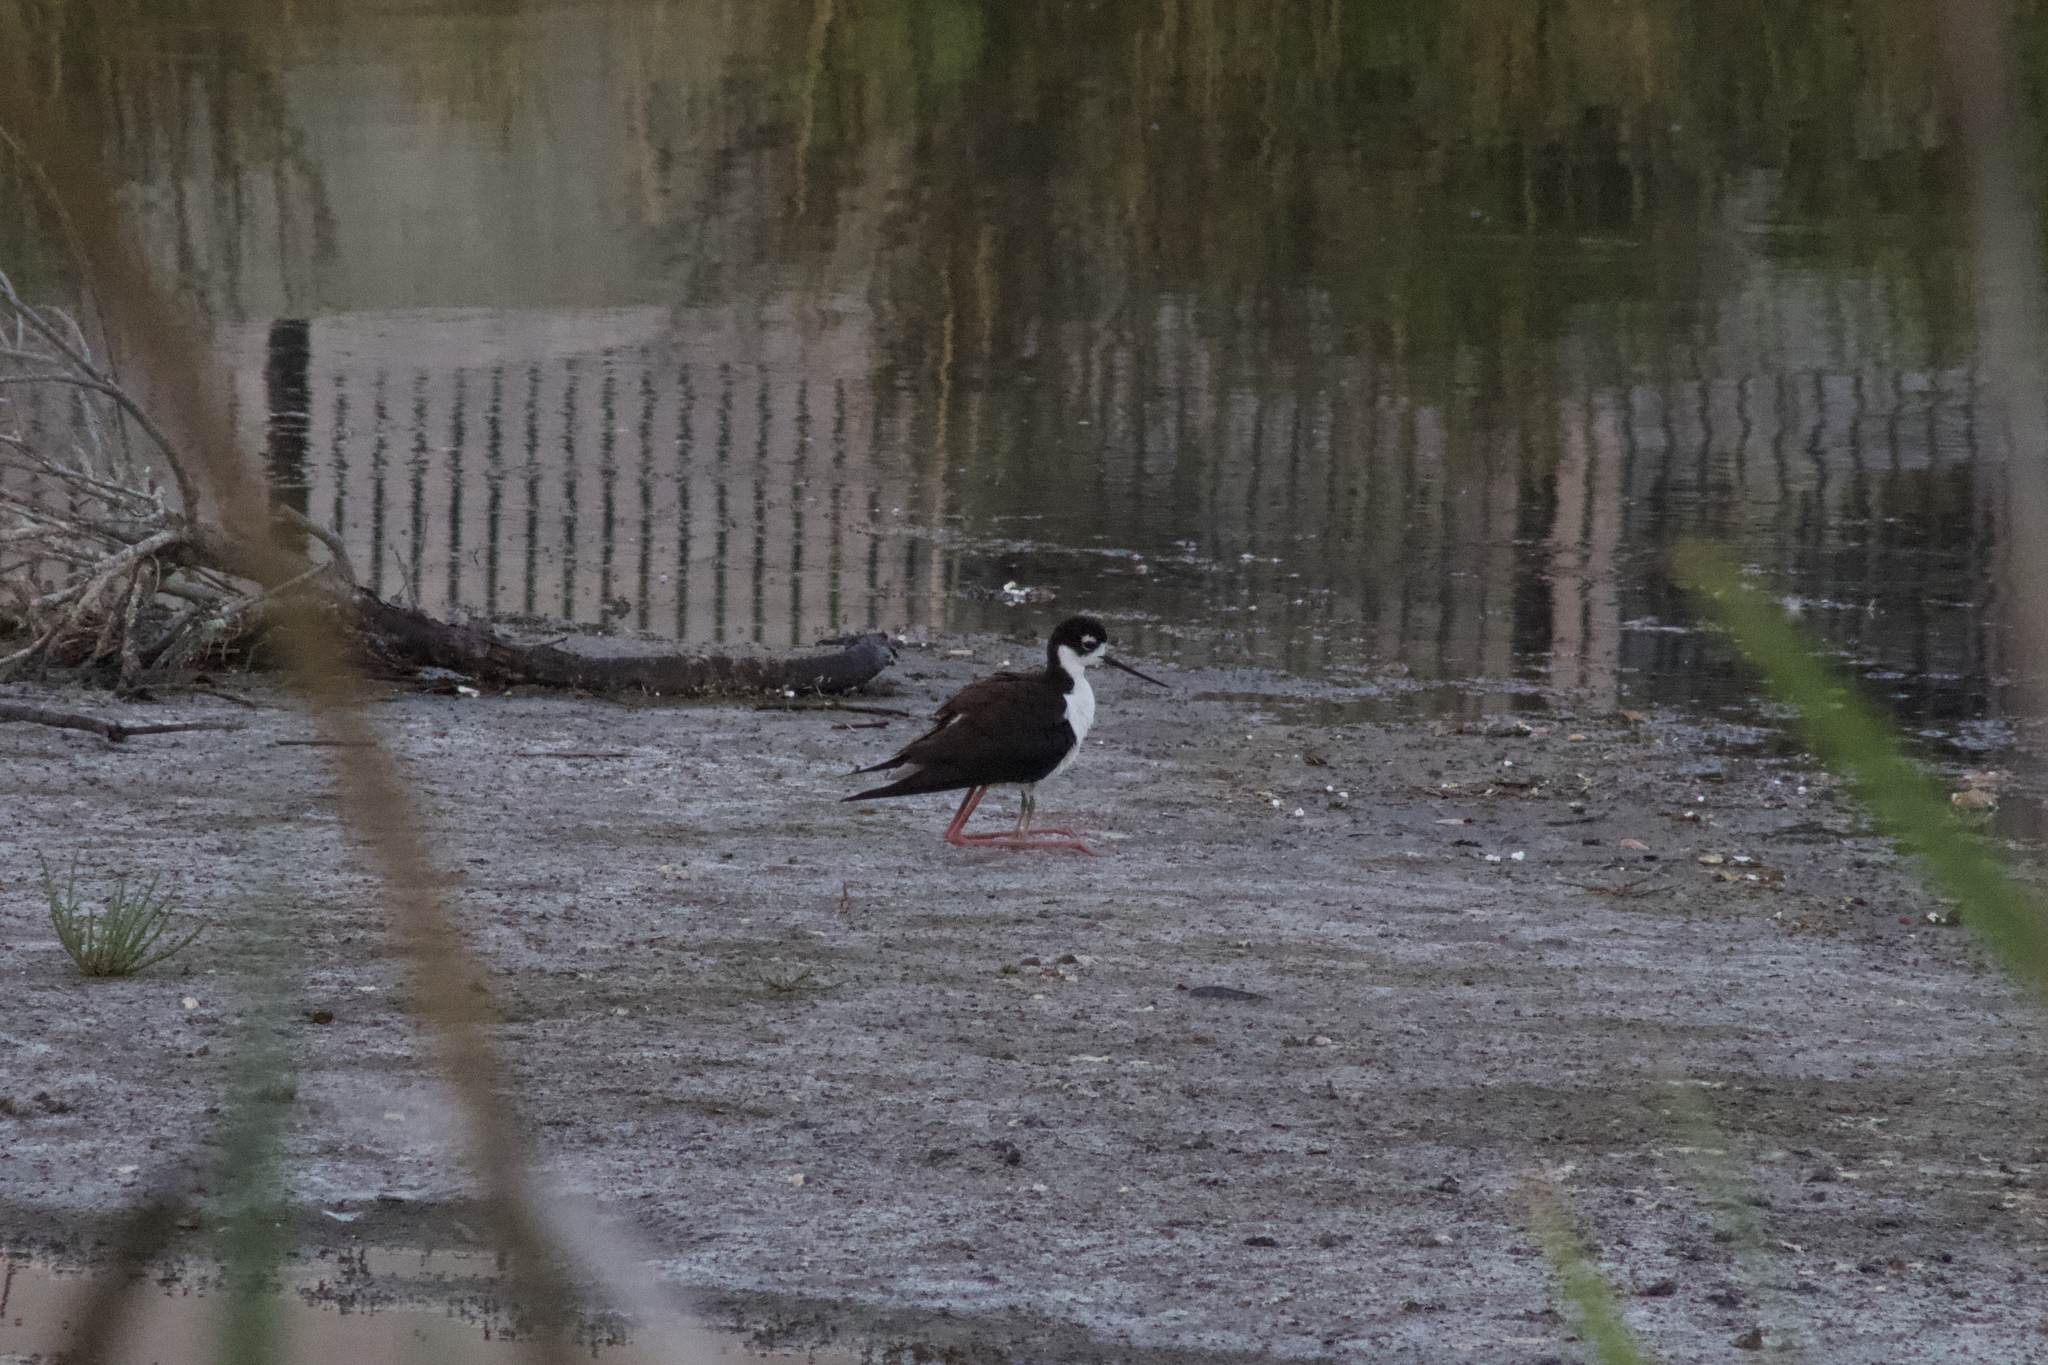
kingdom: Animalia
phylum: Chordata
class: Aves
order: Charadriiformes
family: Recurvirostridae
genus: Himantopus
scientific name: Himantopus mexicanus
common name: Black-necked stilt
